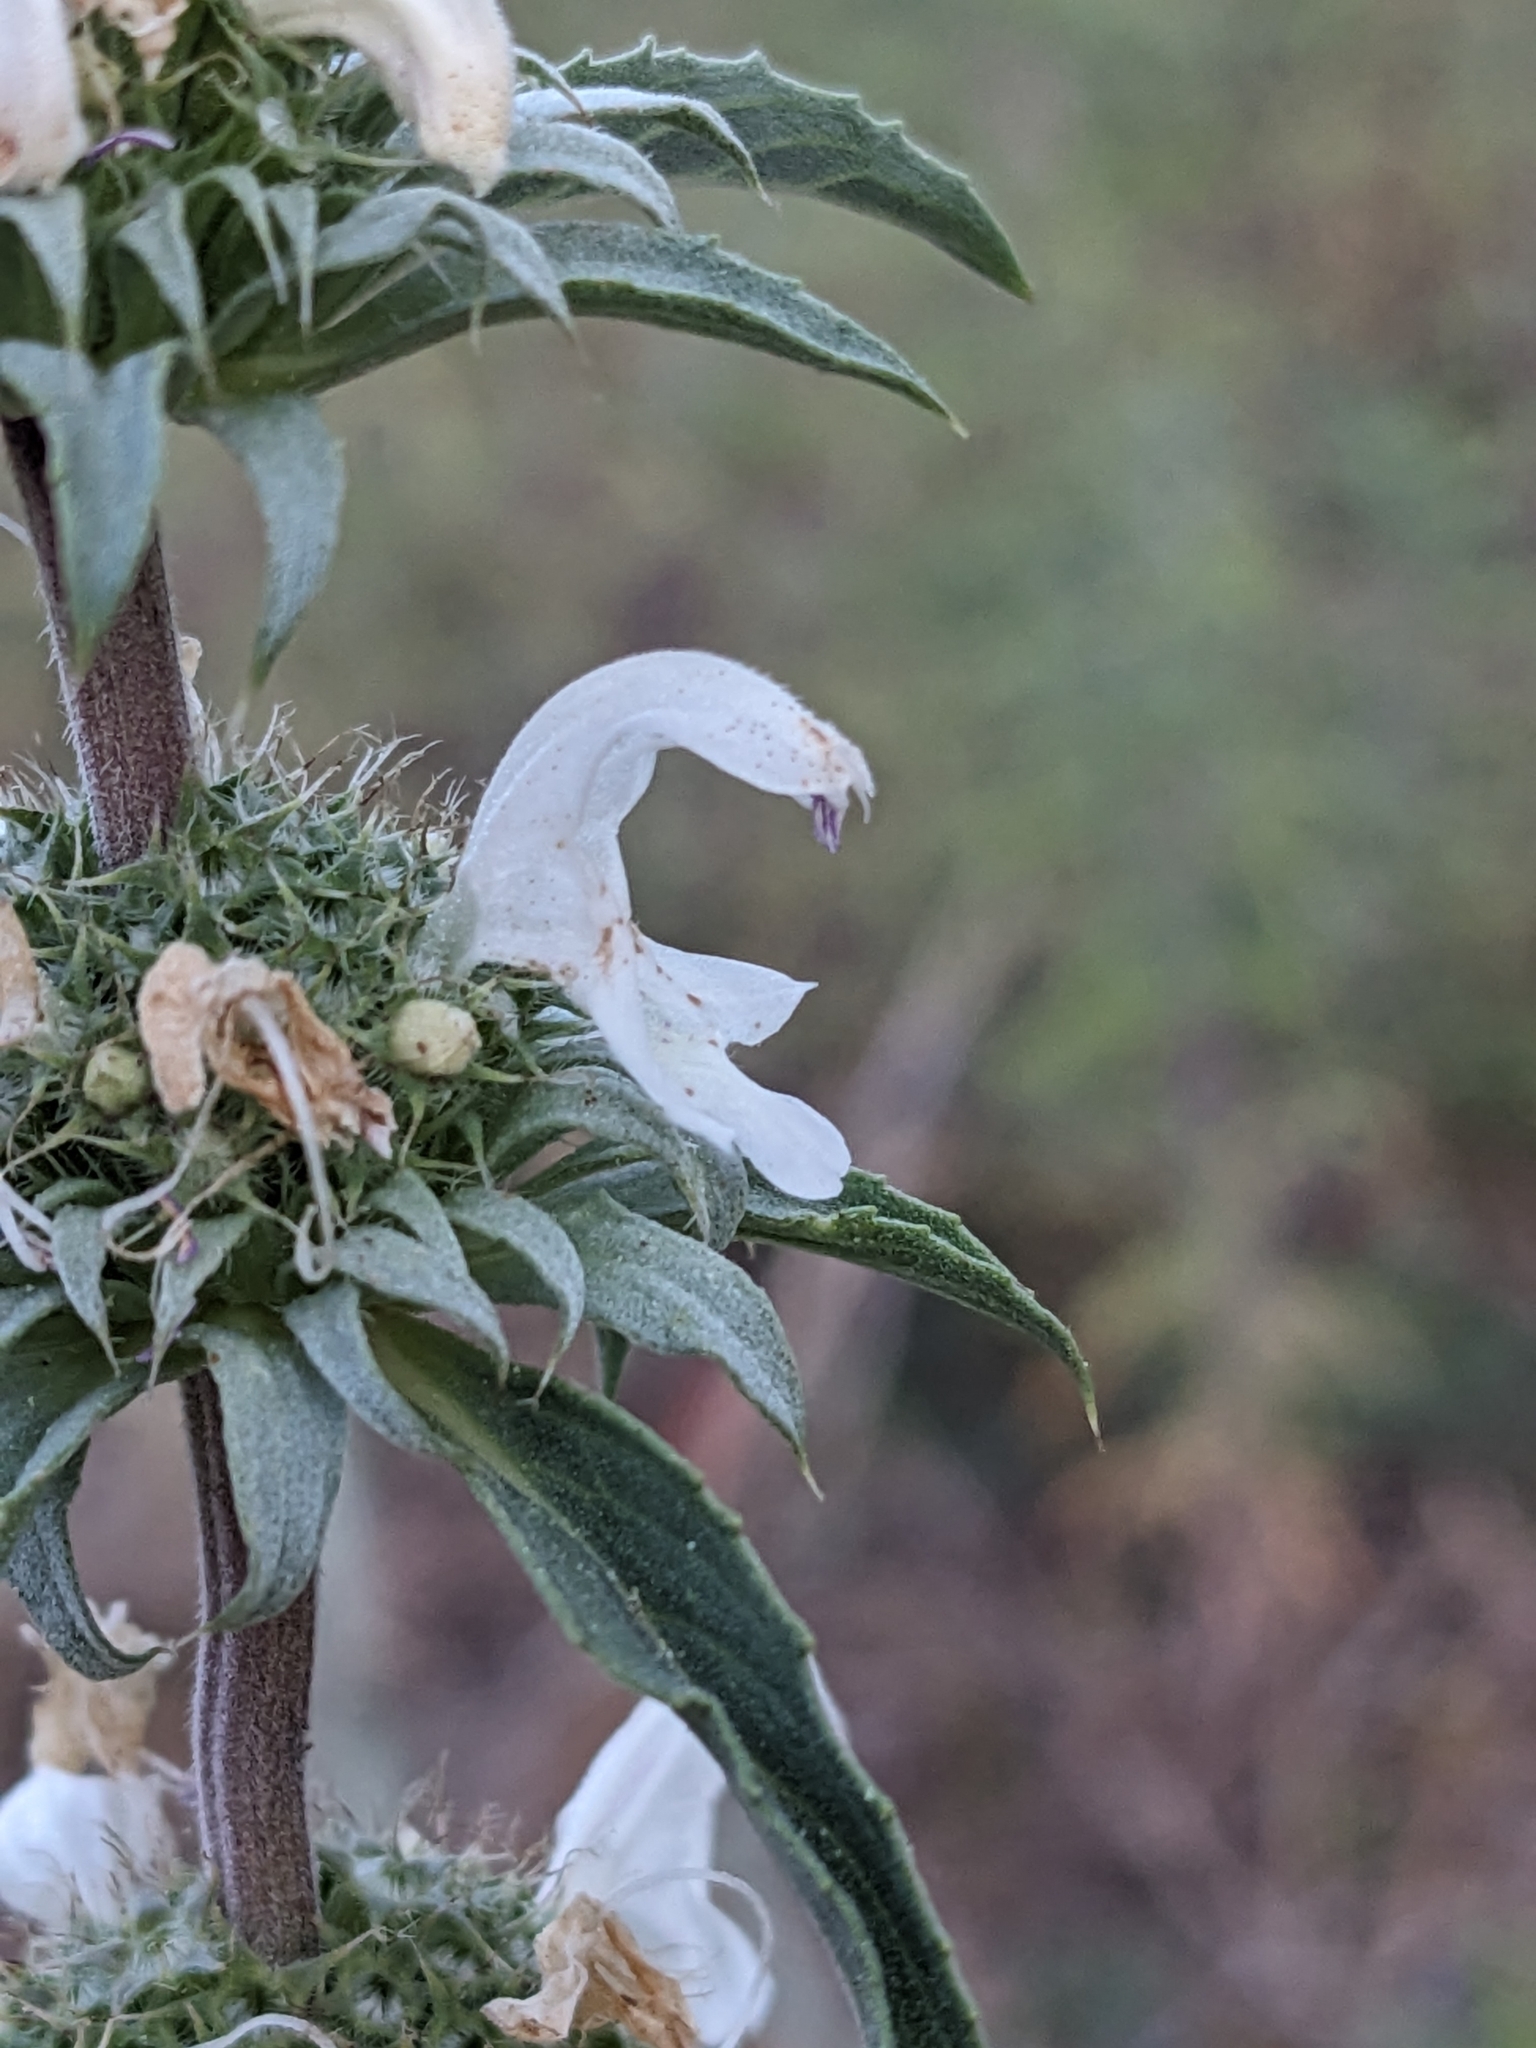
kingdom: Plantae
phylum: Tracheophyta
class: Magnoliopsida
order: Lamiales
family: Lamiaceae
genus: Monarda
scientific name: Monarda citriodora
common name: Lemon beebalm
